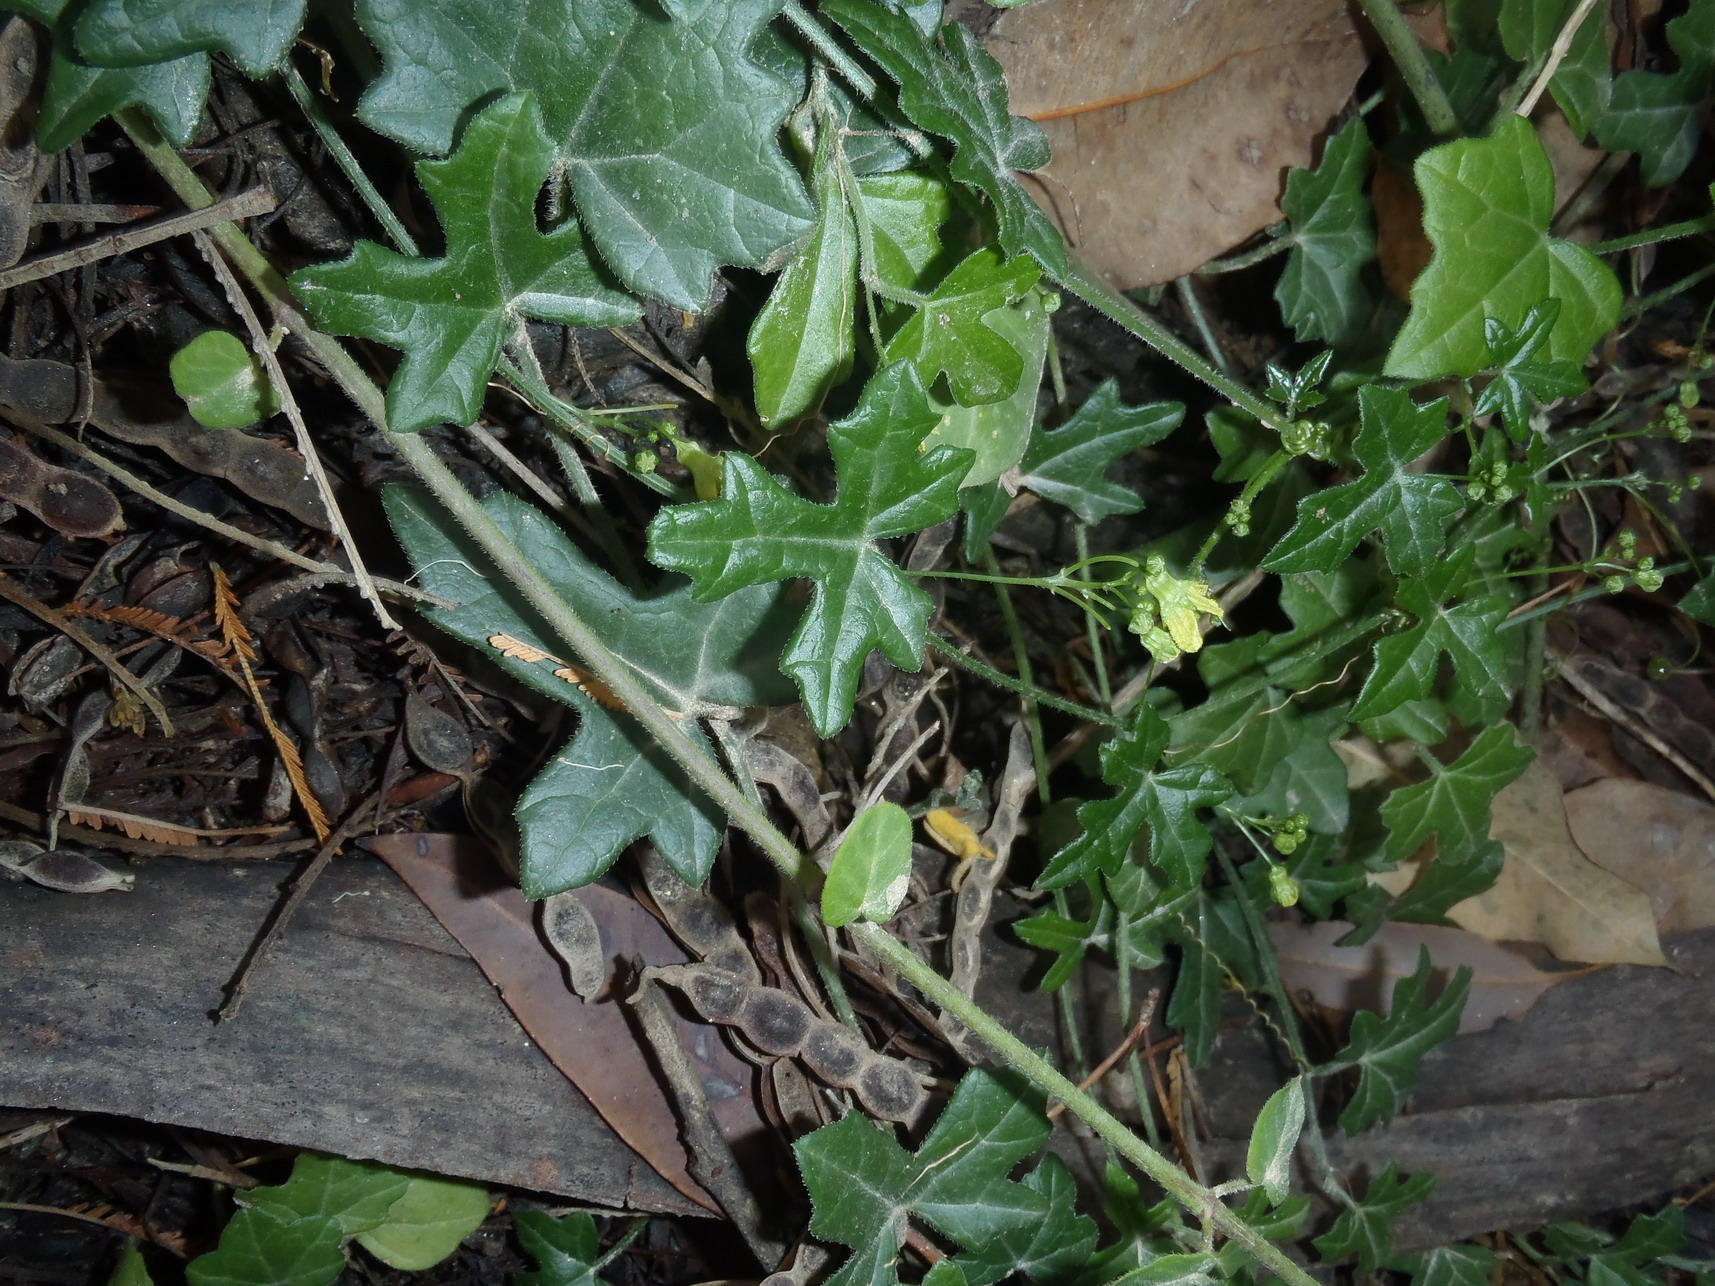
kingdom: Plantae
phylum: Tracheophyta
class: Magnoliopsida
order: Cucurbitales
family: Cucurbitaceae
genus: Kedrostis
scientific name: Kedrostis nana
